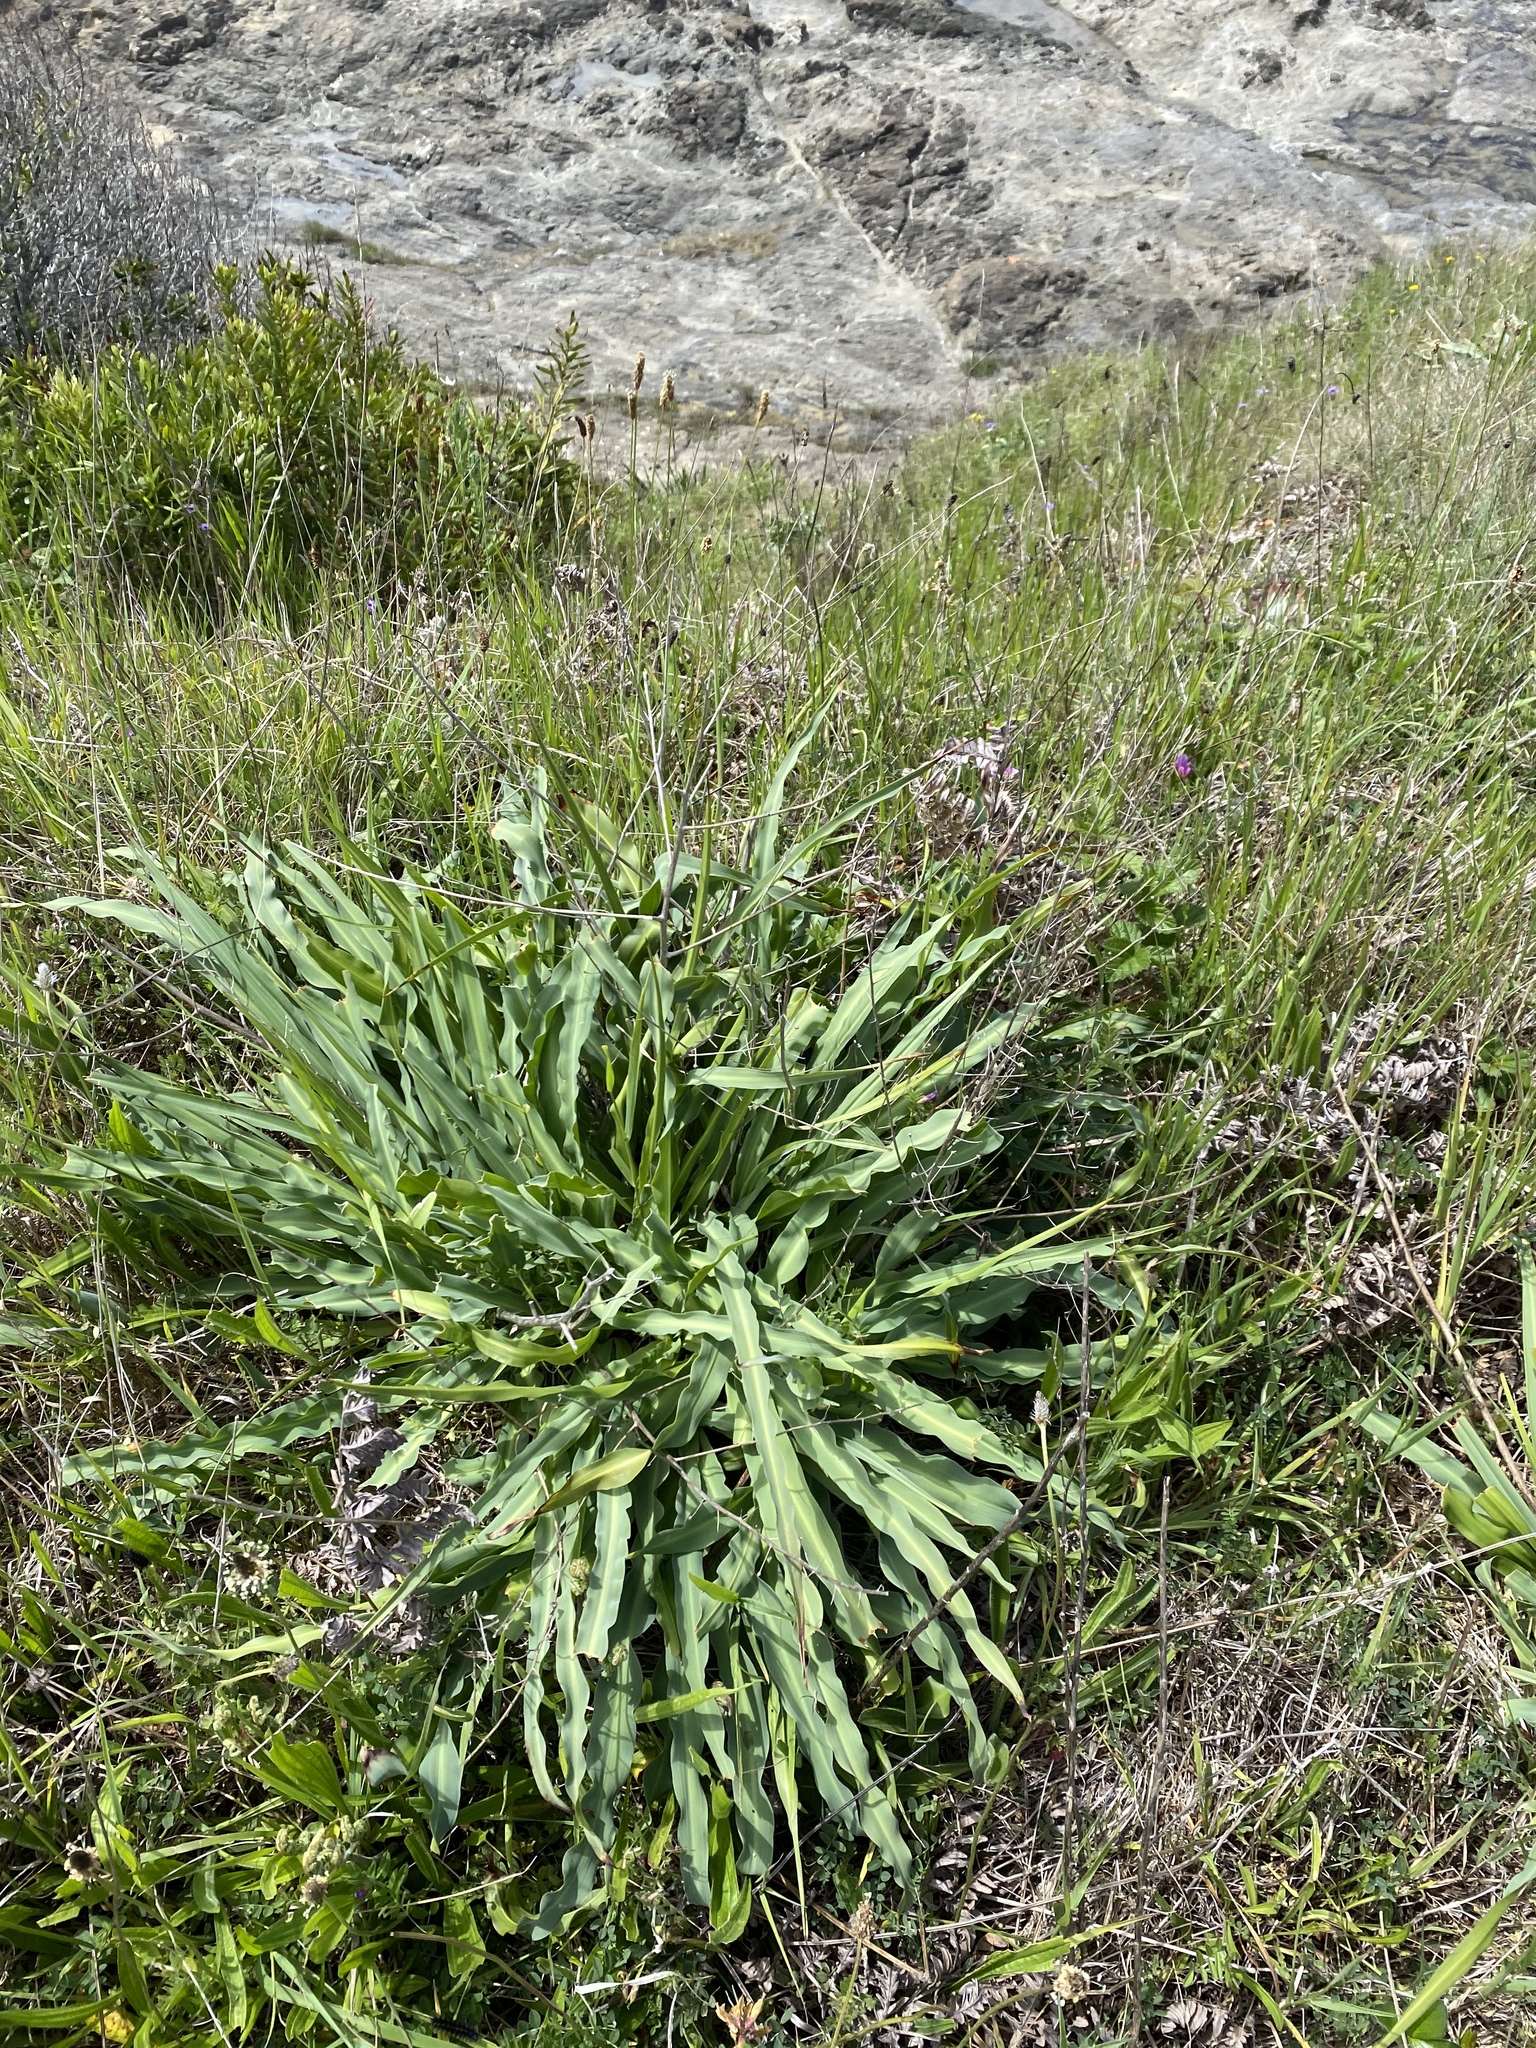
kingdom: Plantae
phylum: Tracheophyta
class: Liliopsida
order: Asparagales
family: Asparagaceae
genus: Chlorogalum
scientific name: Chlorogalum pomeridianum
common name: Amole
